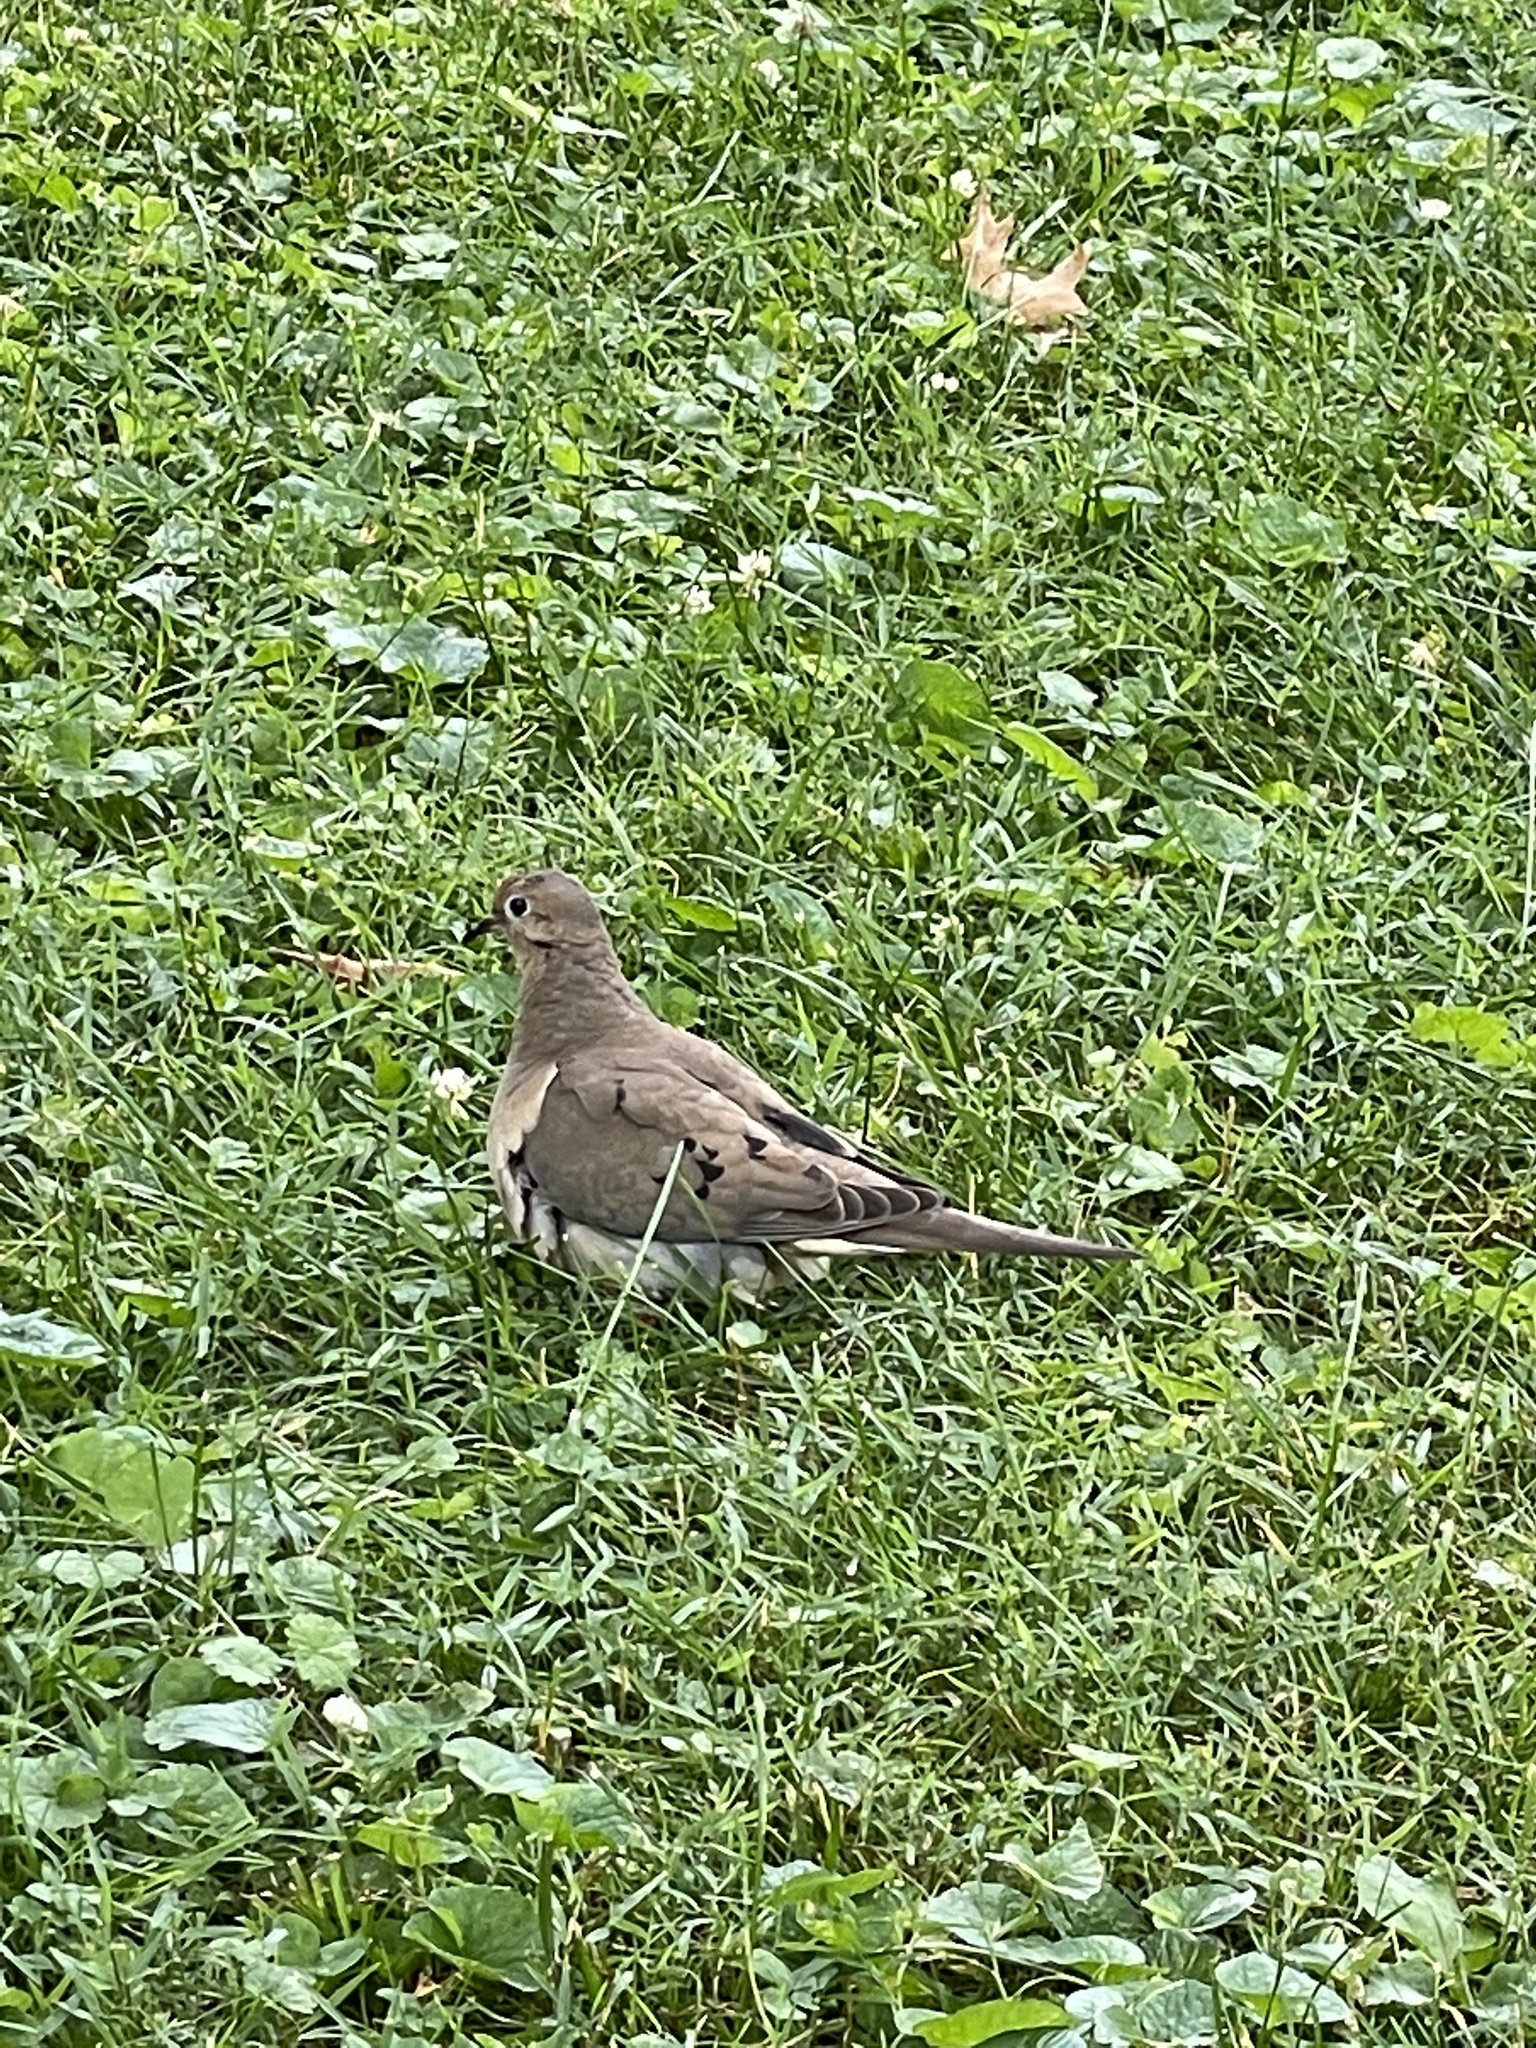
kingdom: Animalia
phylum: Chordata
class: Aves
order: Columbiformes
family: Columbidae
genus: Zenaida
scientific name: Zenaida macroura
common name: Mourning dove
